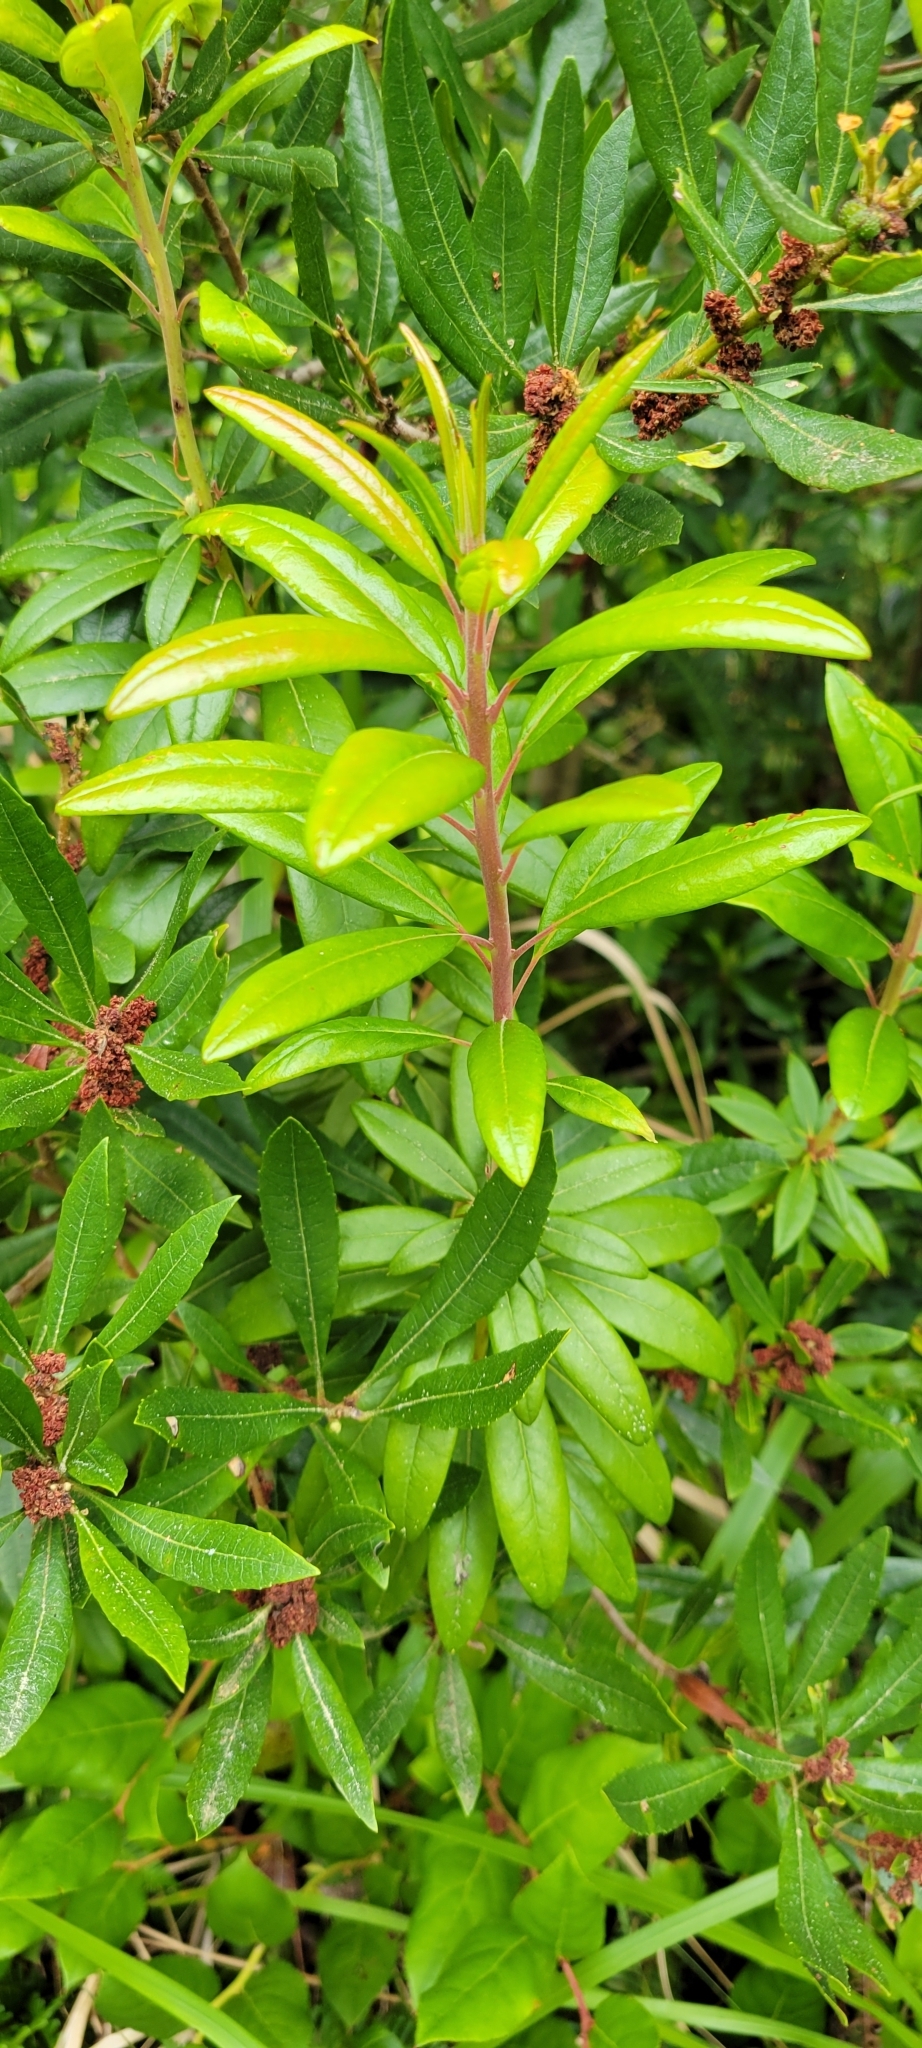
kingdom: Plantae
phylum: Tracheophyta
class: Magnoliopsida
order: Fagales
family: Myricaceae
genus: Morella
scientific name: Morella californica
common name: California wax-myrtle
